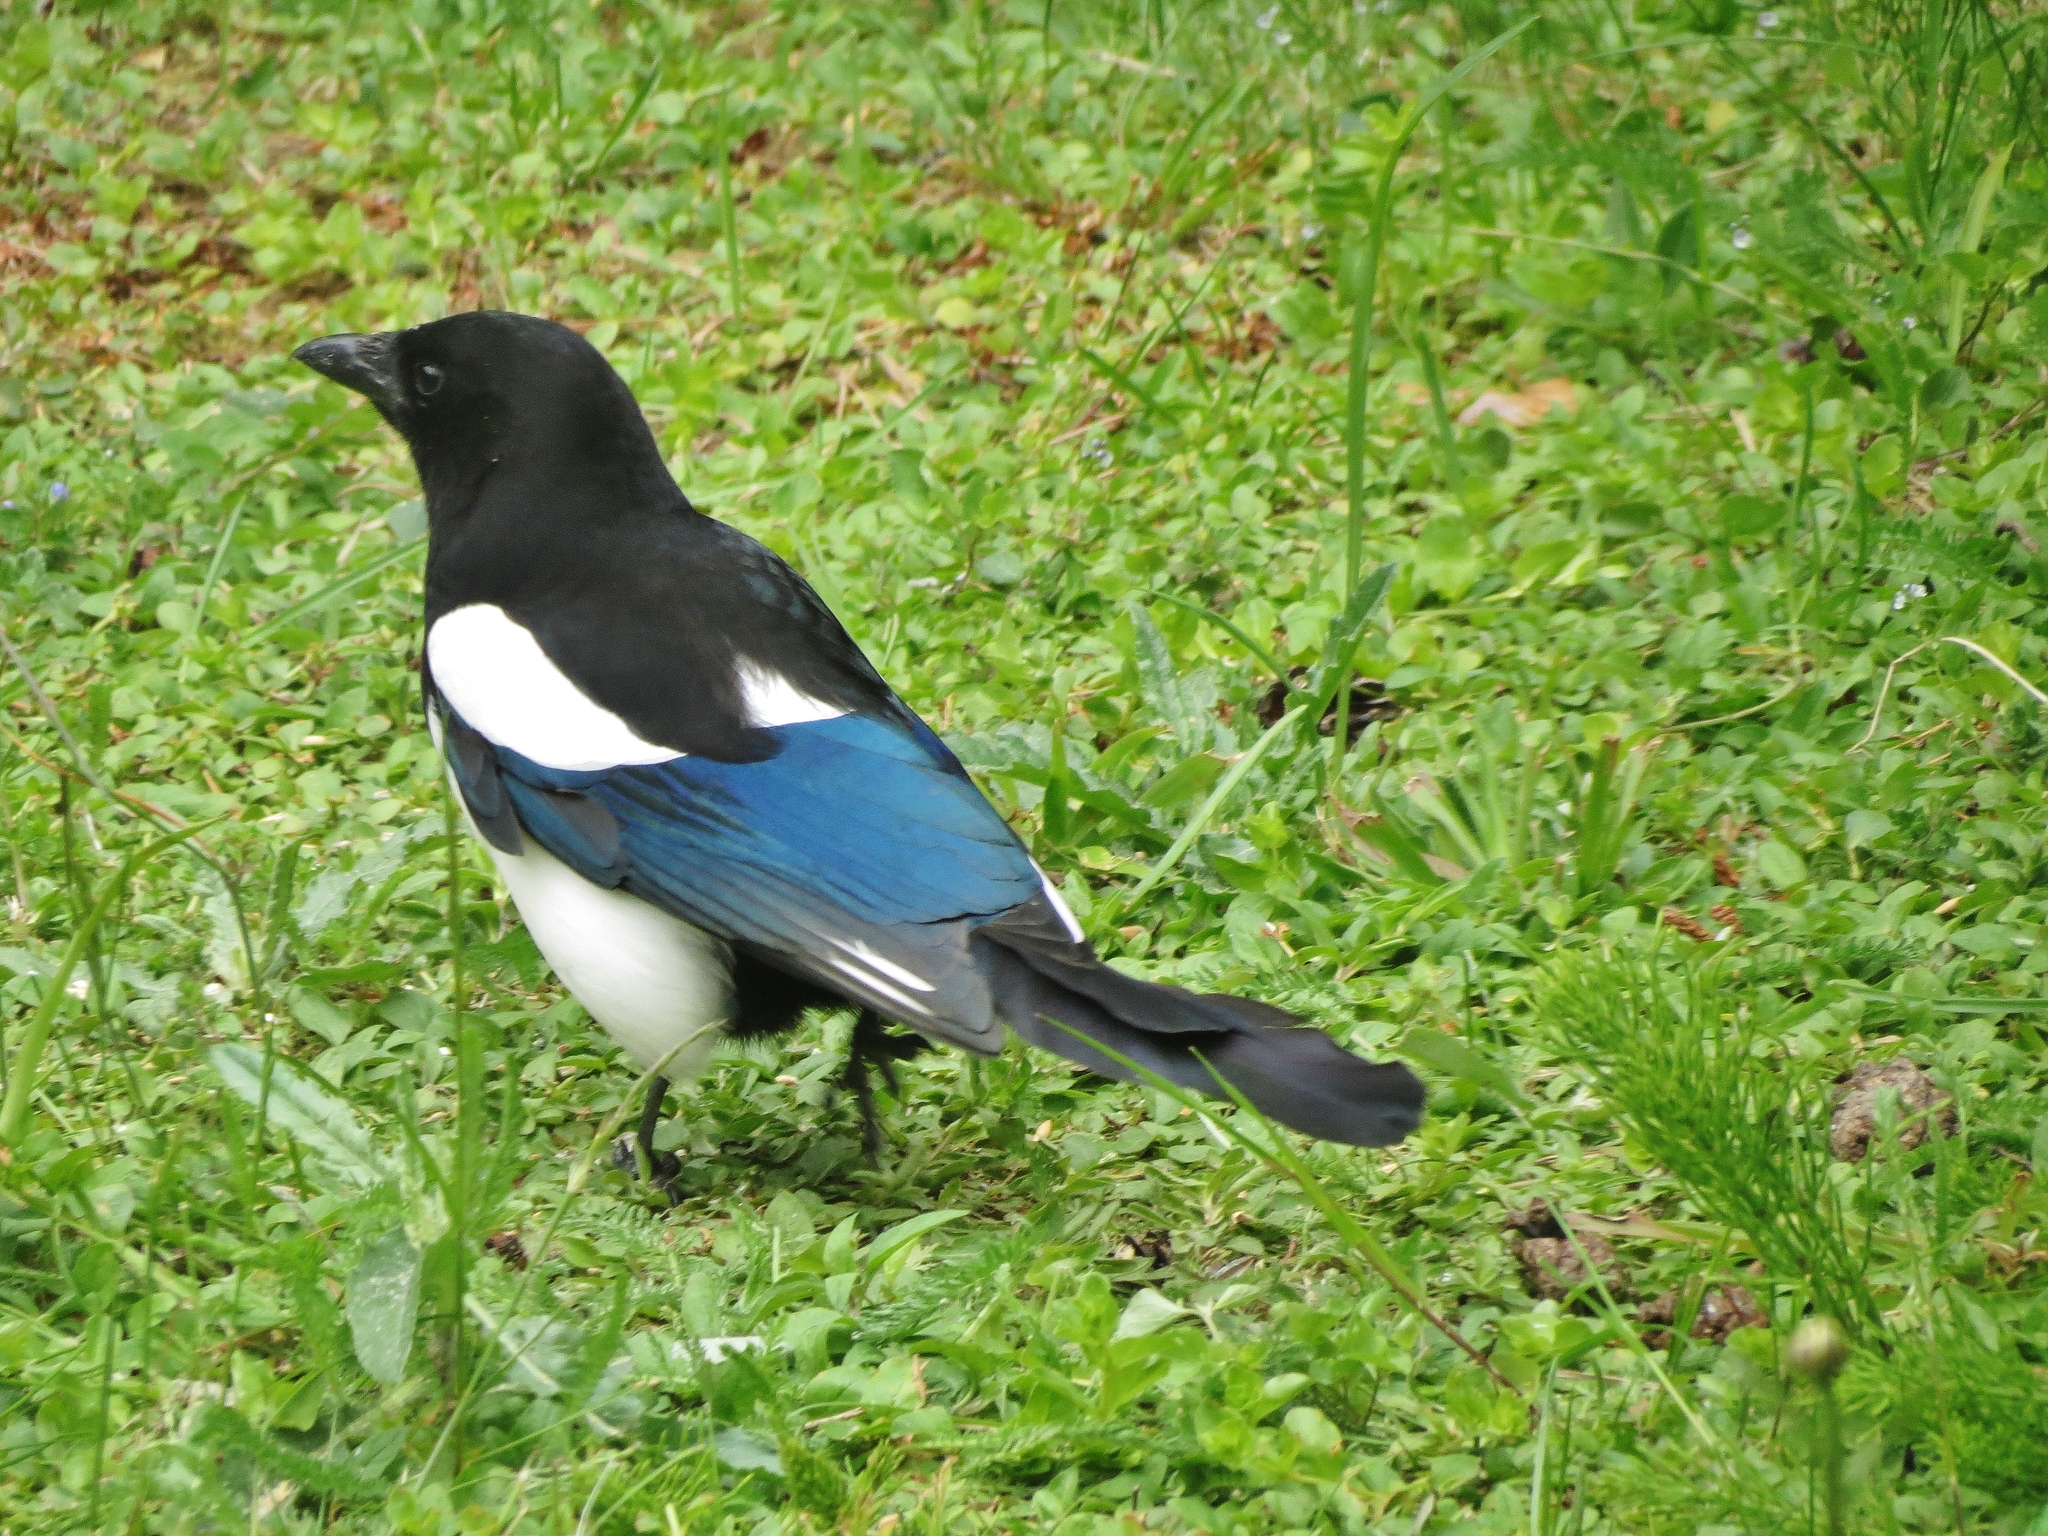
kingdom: Animalia
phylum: Chordata
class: Aves
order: Passeriformes
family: Corvidae
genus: Pica
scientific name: Pica pica
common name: Eurasian magpie
